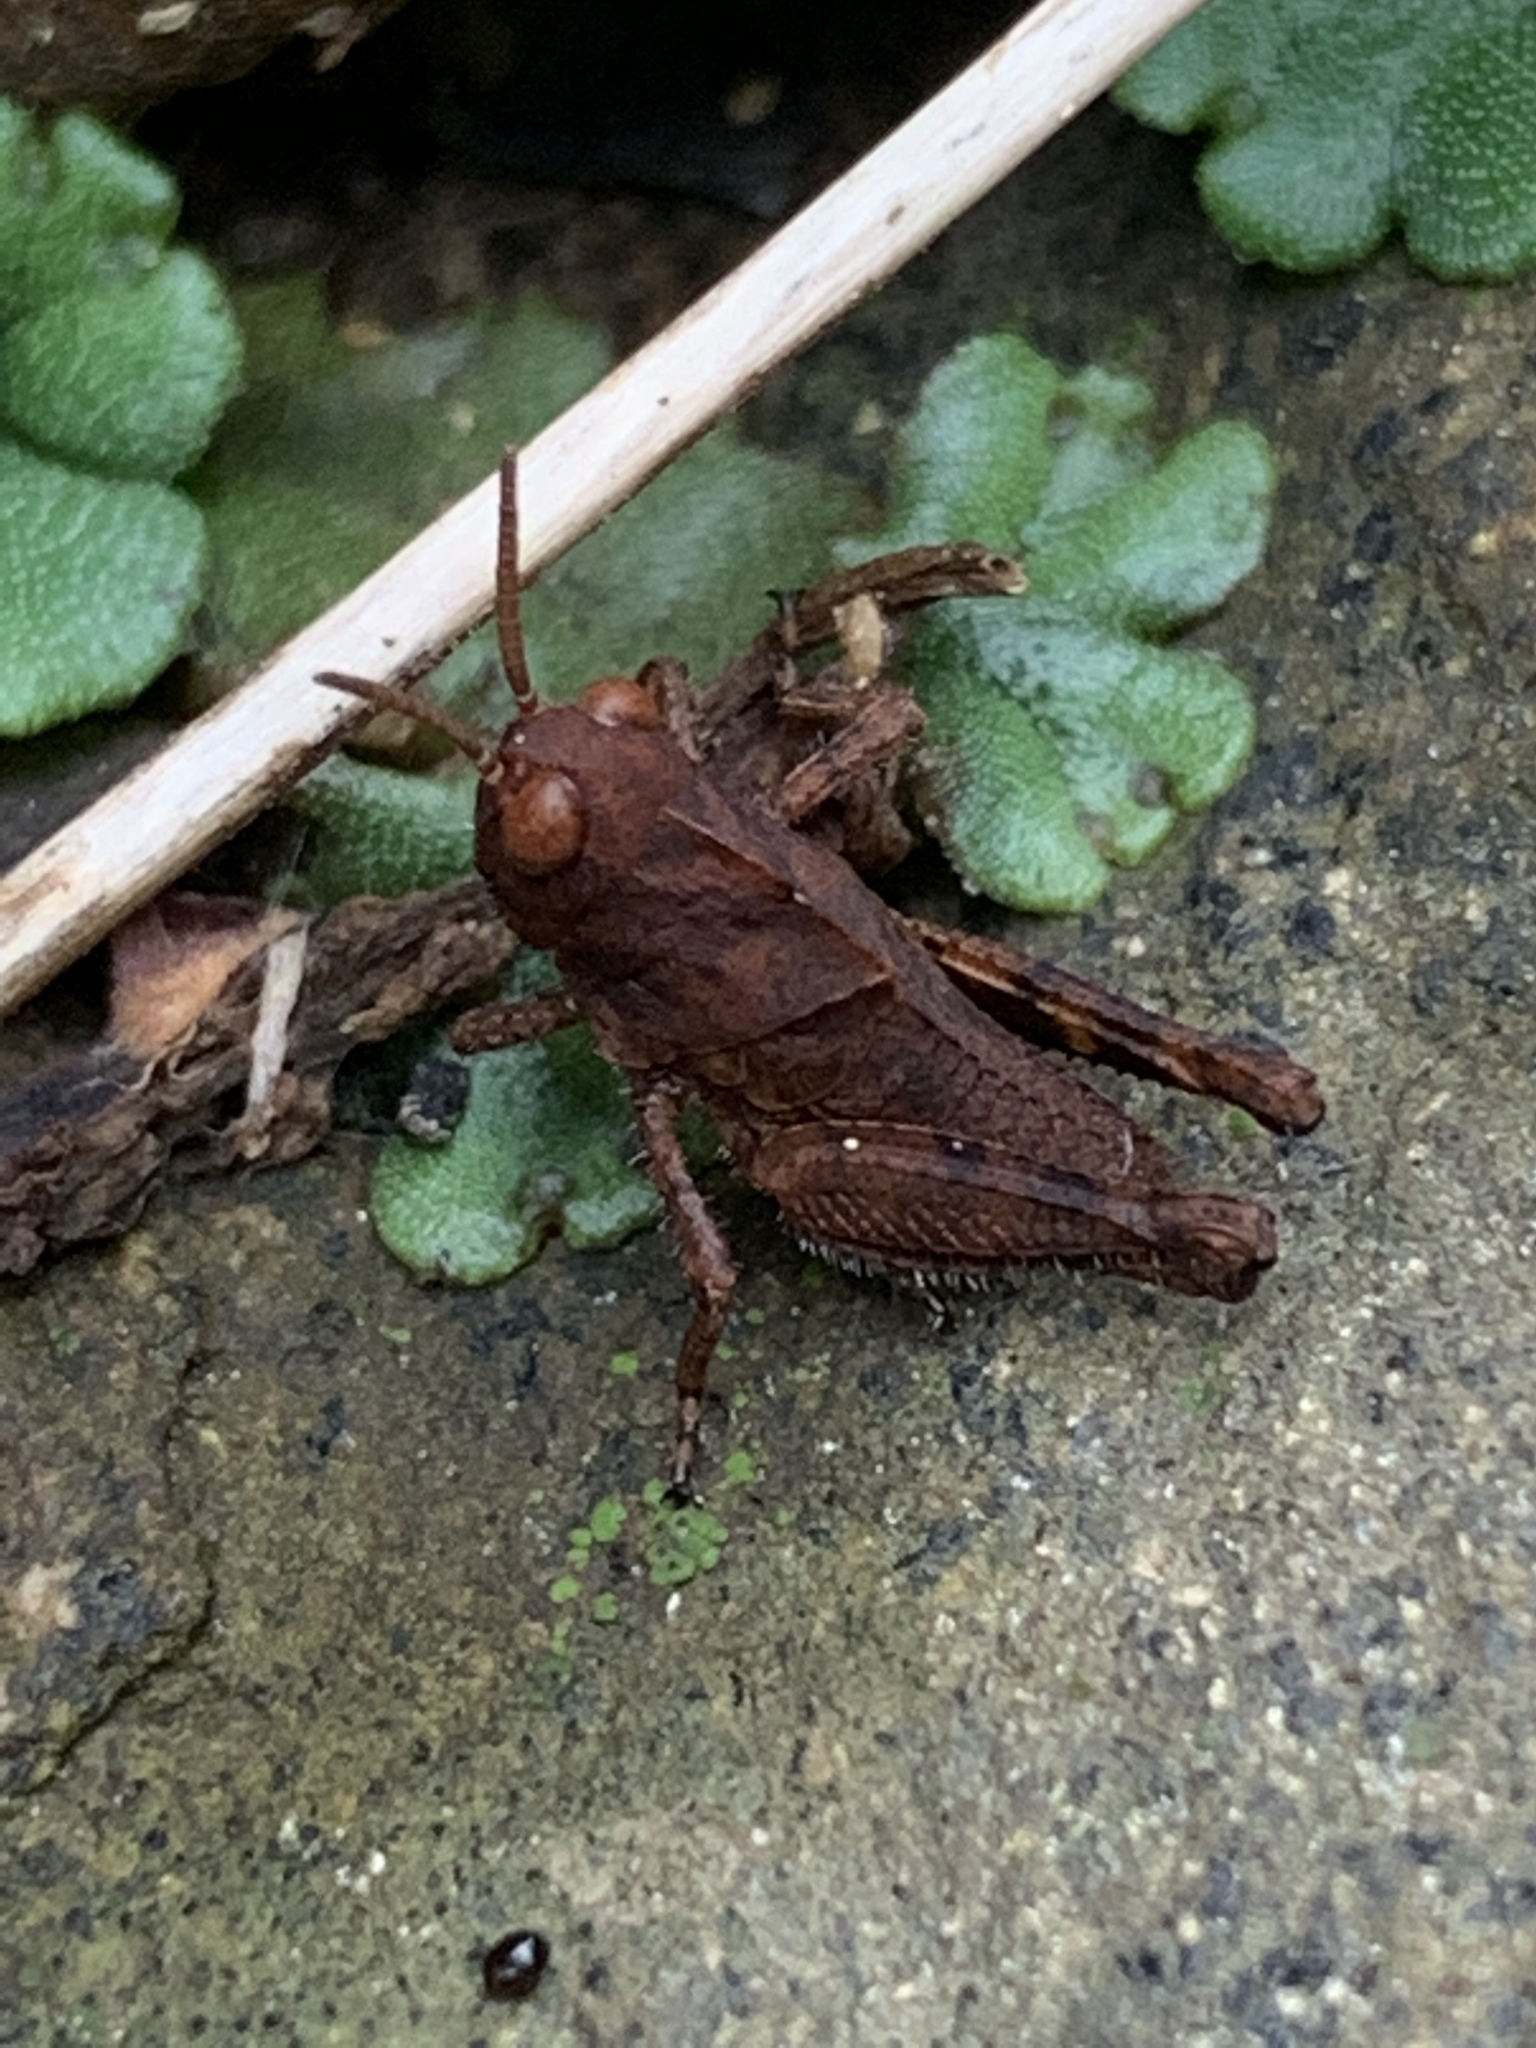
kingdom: Animalia
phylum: Arthropoda
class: Insecta
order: Orthoptera
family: Acrididae
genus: Dissosteira
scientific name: Dissosteira carolina
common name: Carolina grasshopper
